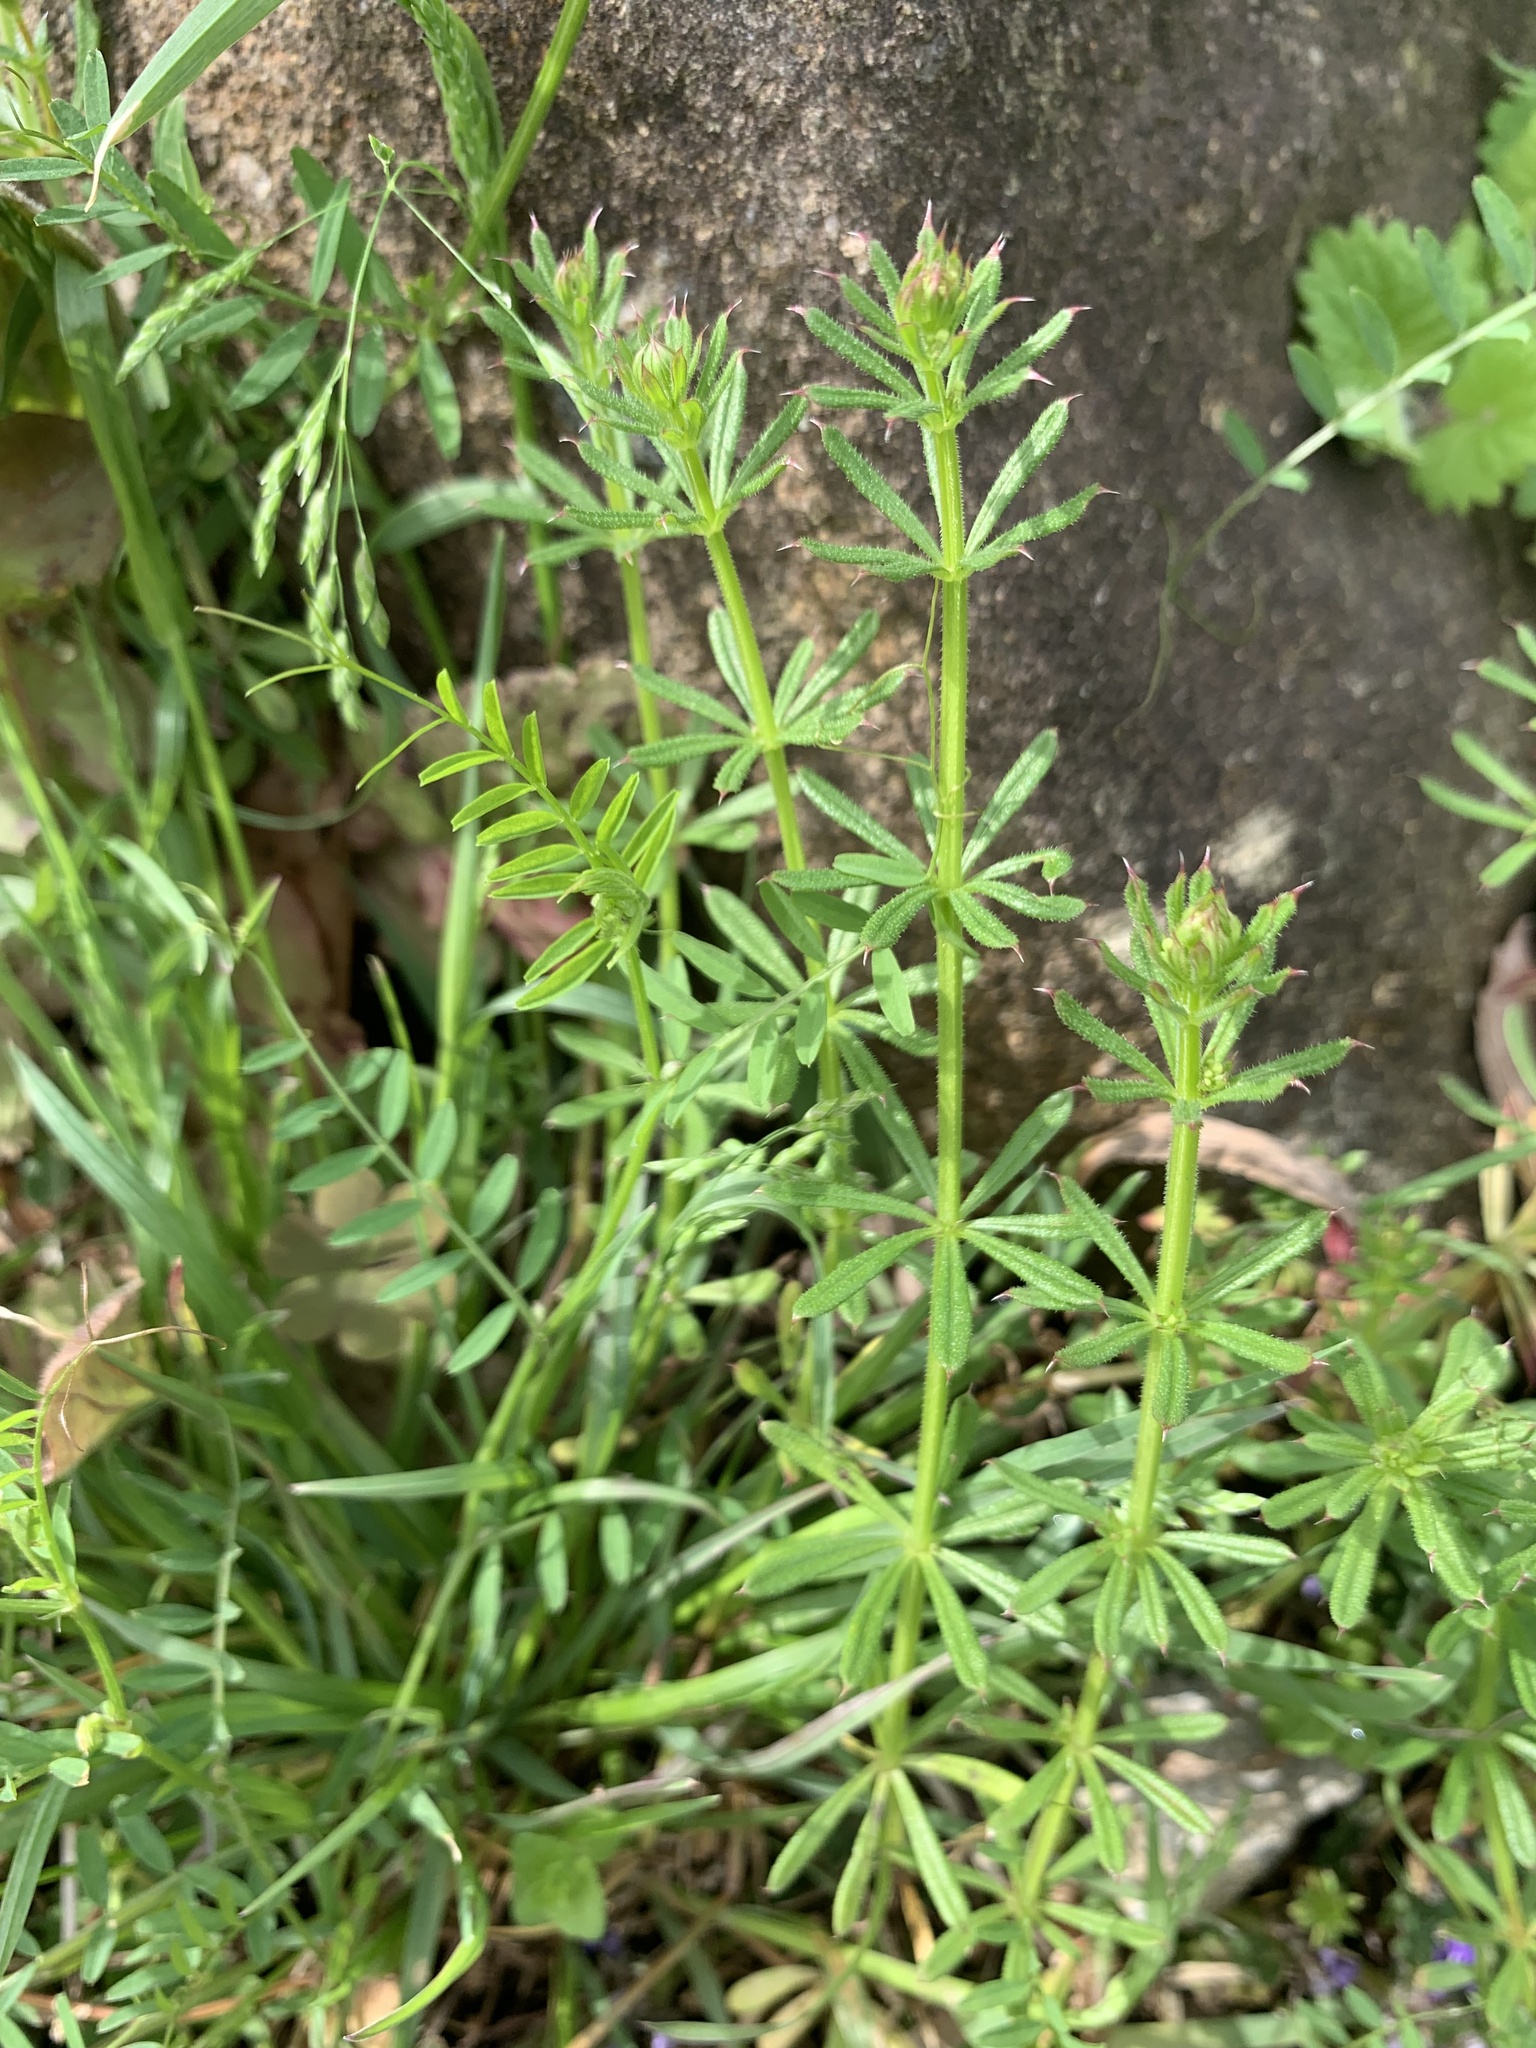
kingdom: Plantae
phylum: Tracheophyta
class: Magnoliopsida
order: Gentianales
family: Rubiaceae
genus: Galium
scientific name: Galium
